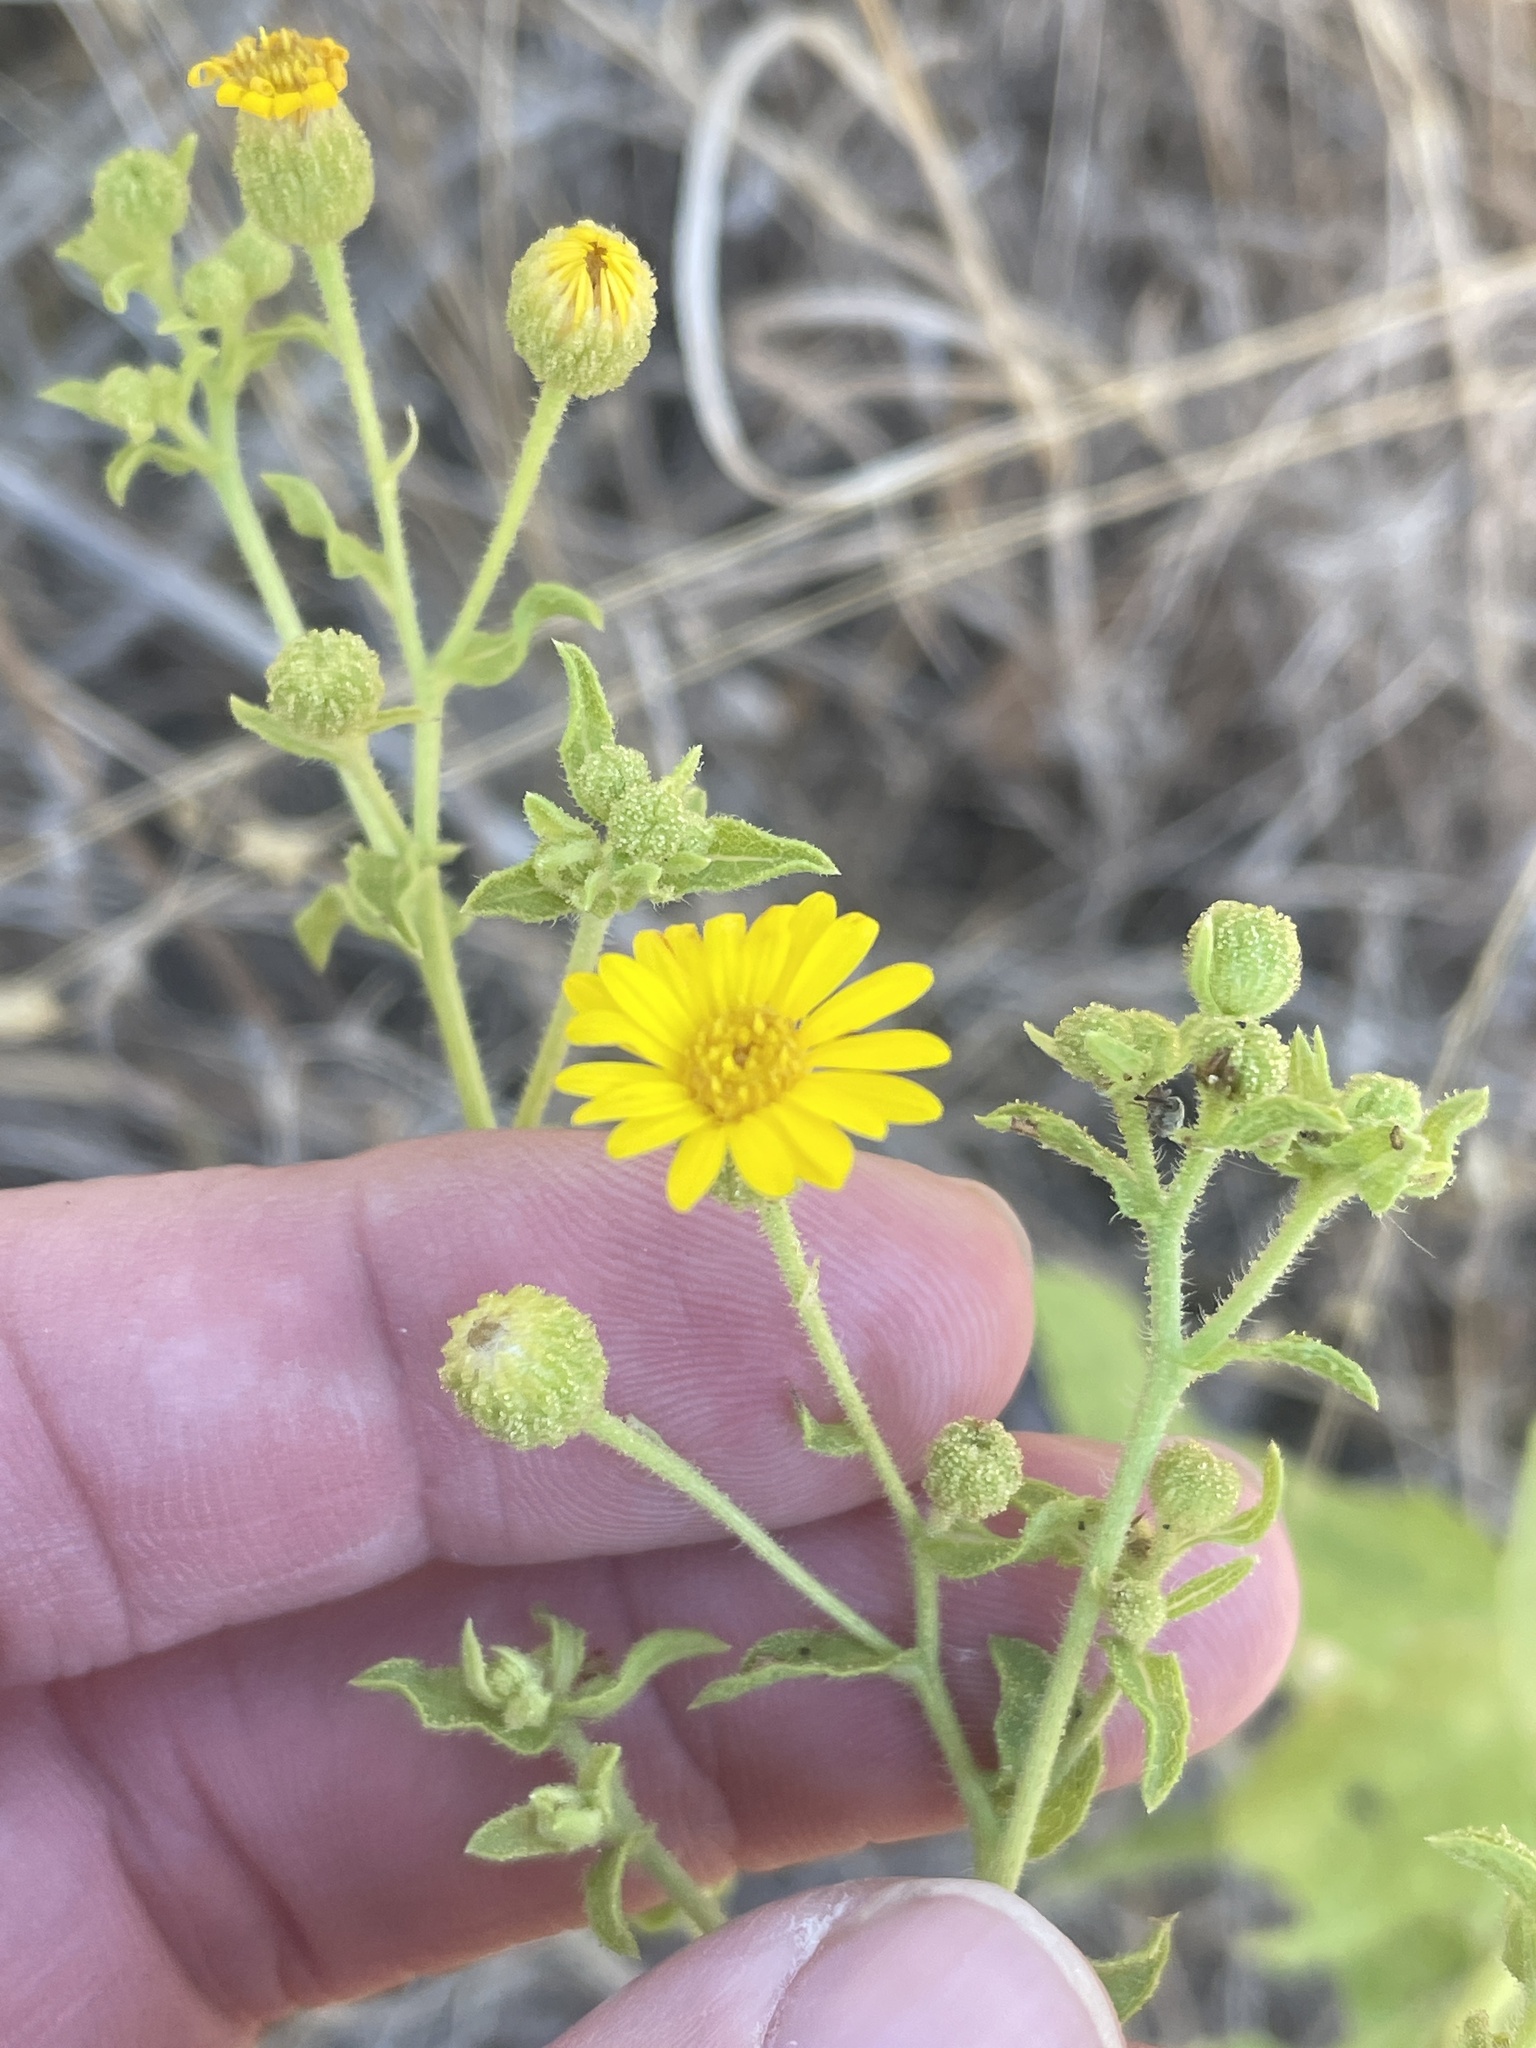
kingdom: Plantae
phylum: Tracheophyta
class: Magnoliopsida
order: Asterales
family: Asteraceae
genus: Heterotheca
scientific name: Heterotheca subaxillaris
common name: Camphorweed
